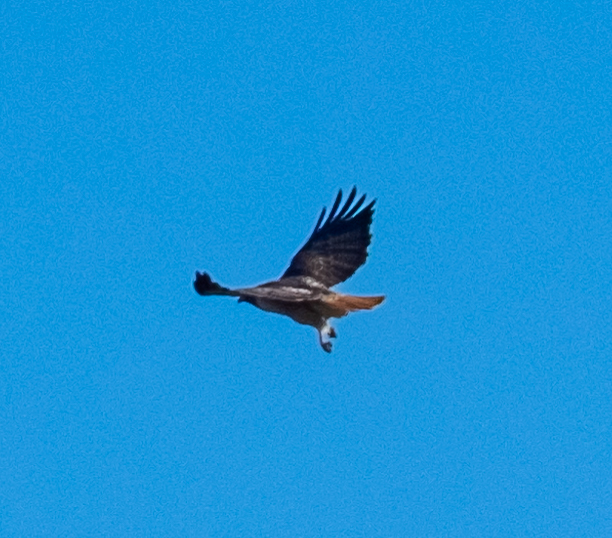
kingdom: Animalia
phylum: Chordata
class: Aves
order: Accipitriformes
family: Accipitridae
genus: Buteo
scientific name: Buteo jamaicensis
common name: Red-tailed hawk
